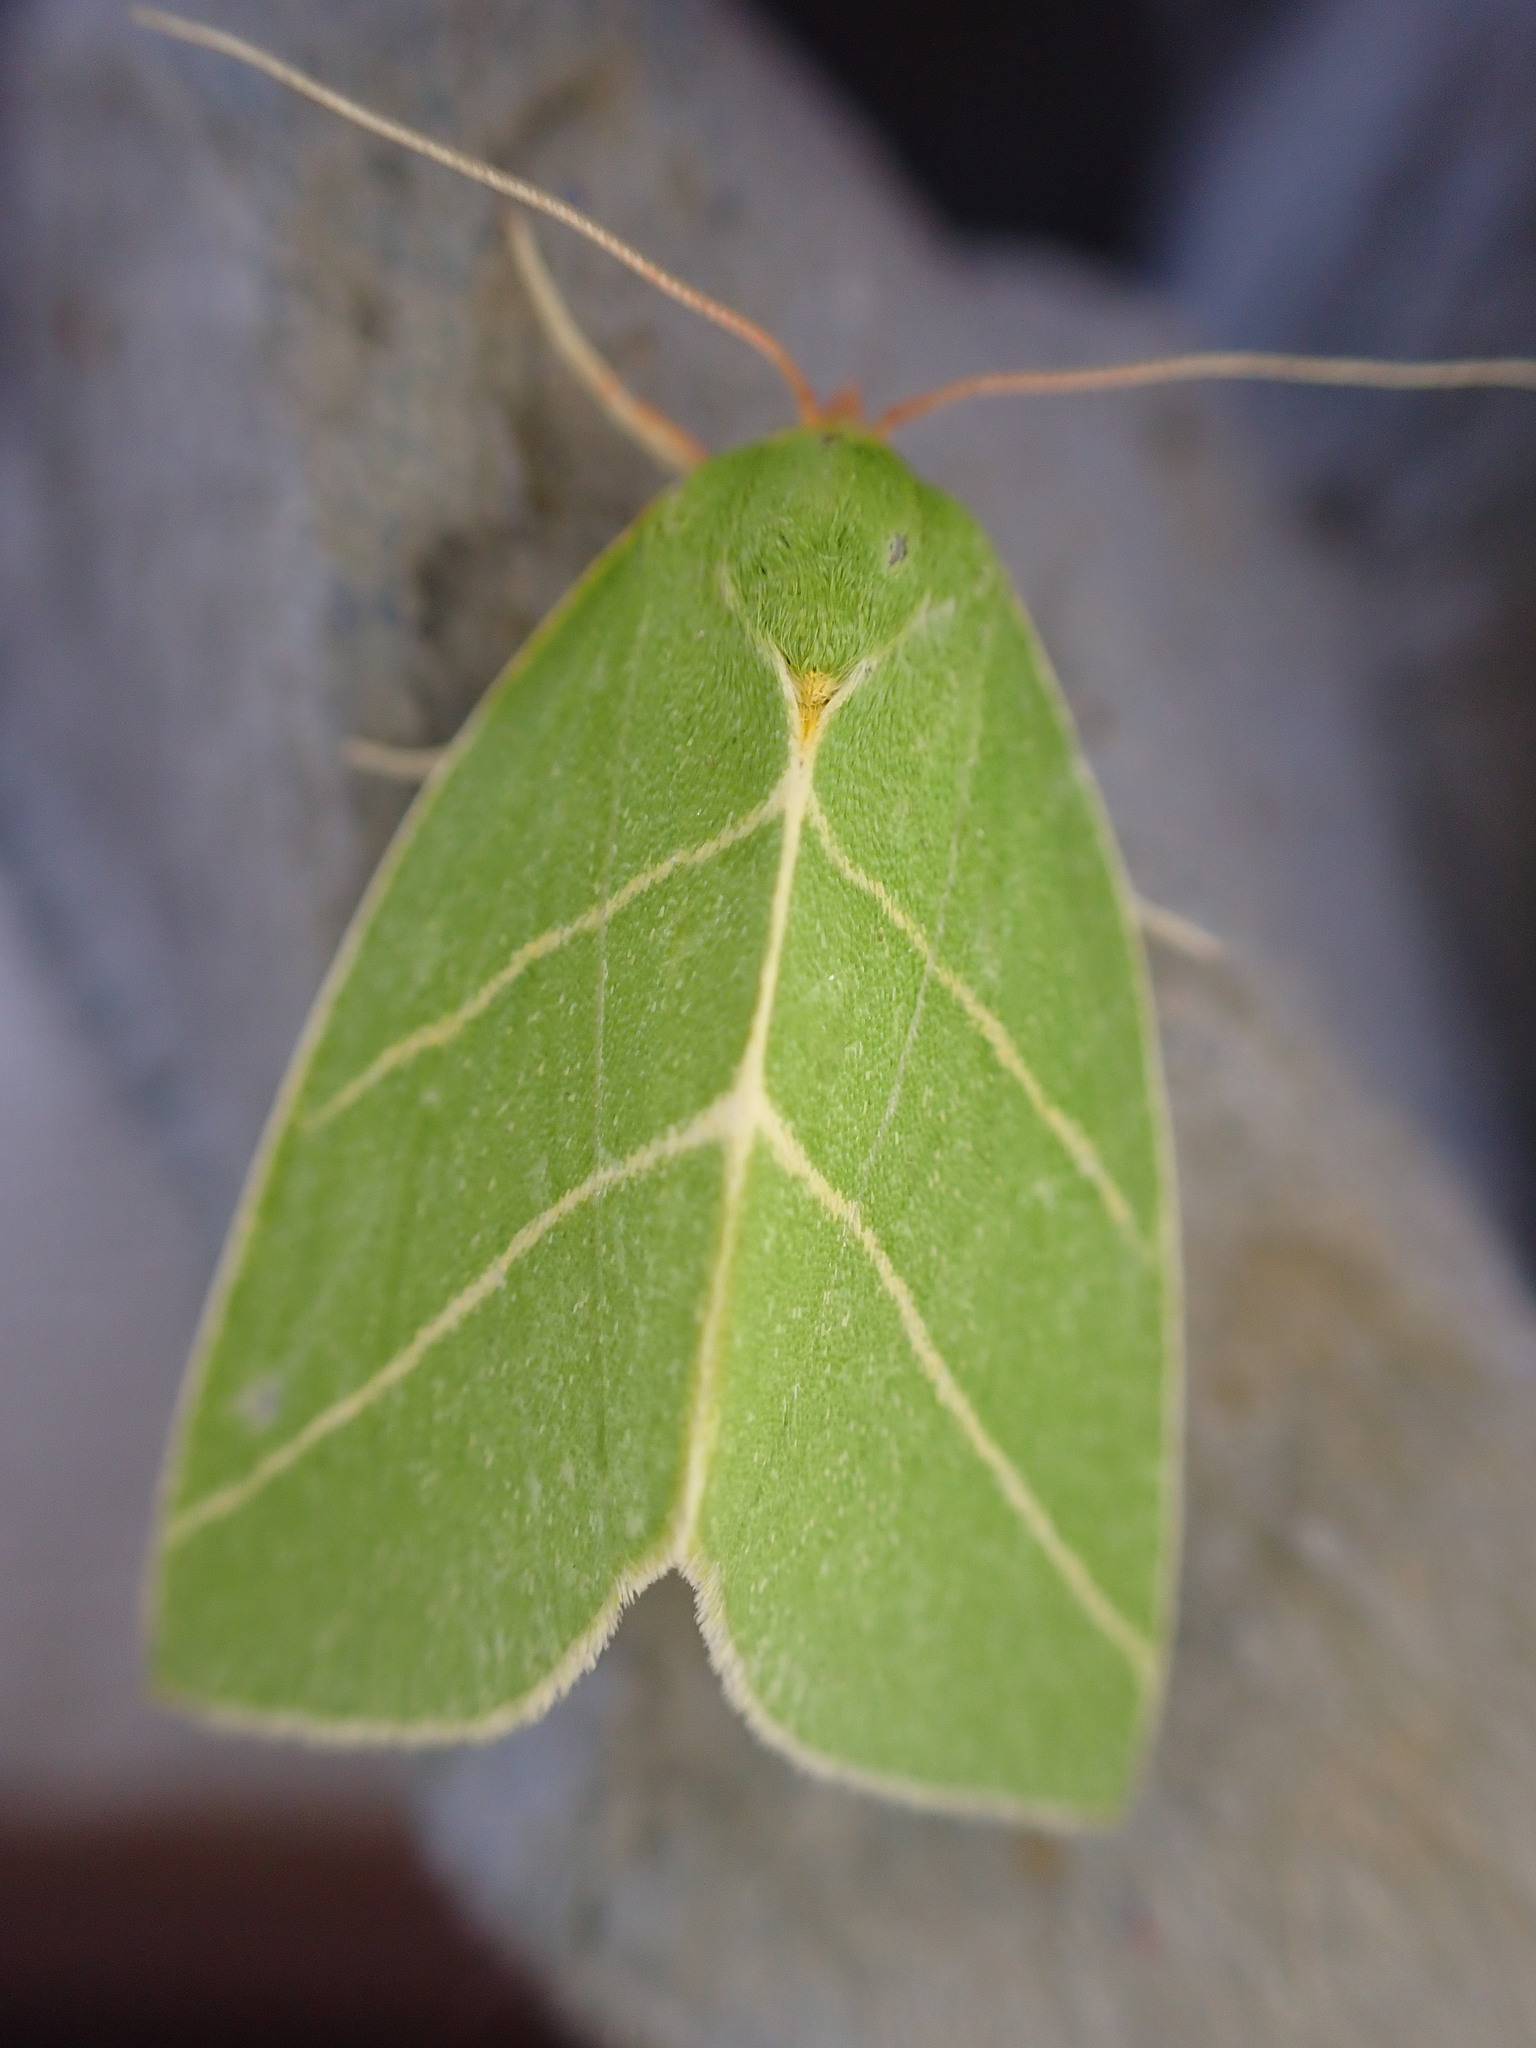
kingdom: Animalia
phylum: Arthropoda
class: Insecta
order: Lepidoptera
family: Nolidae
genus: Bena
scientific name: Bena bicolorana
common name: Scarce silver-lines
